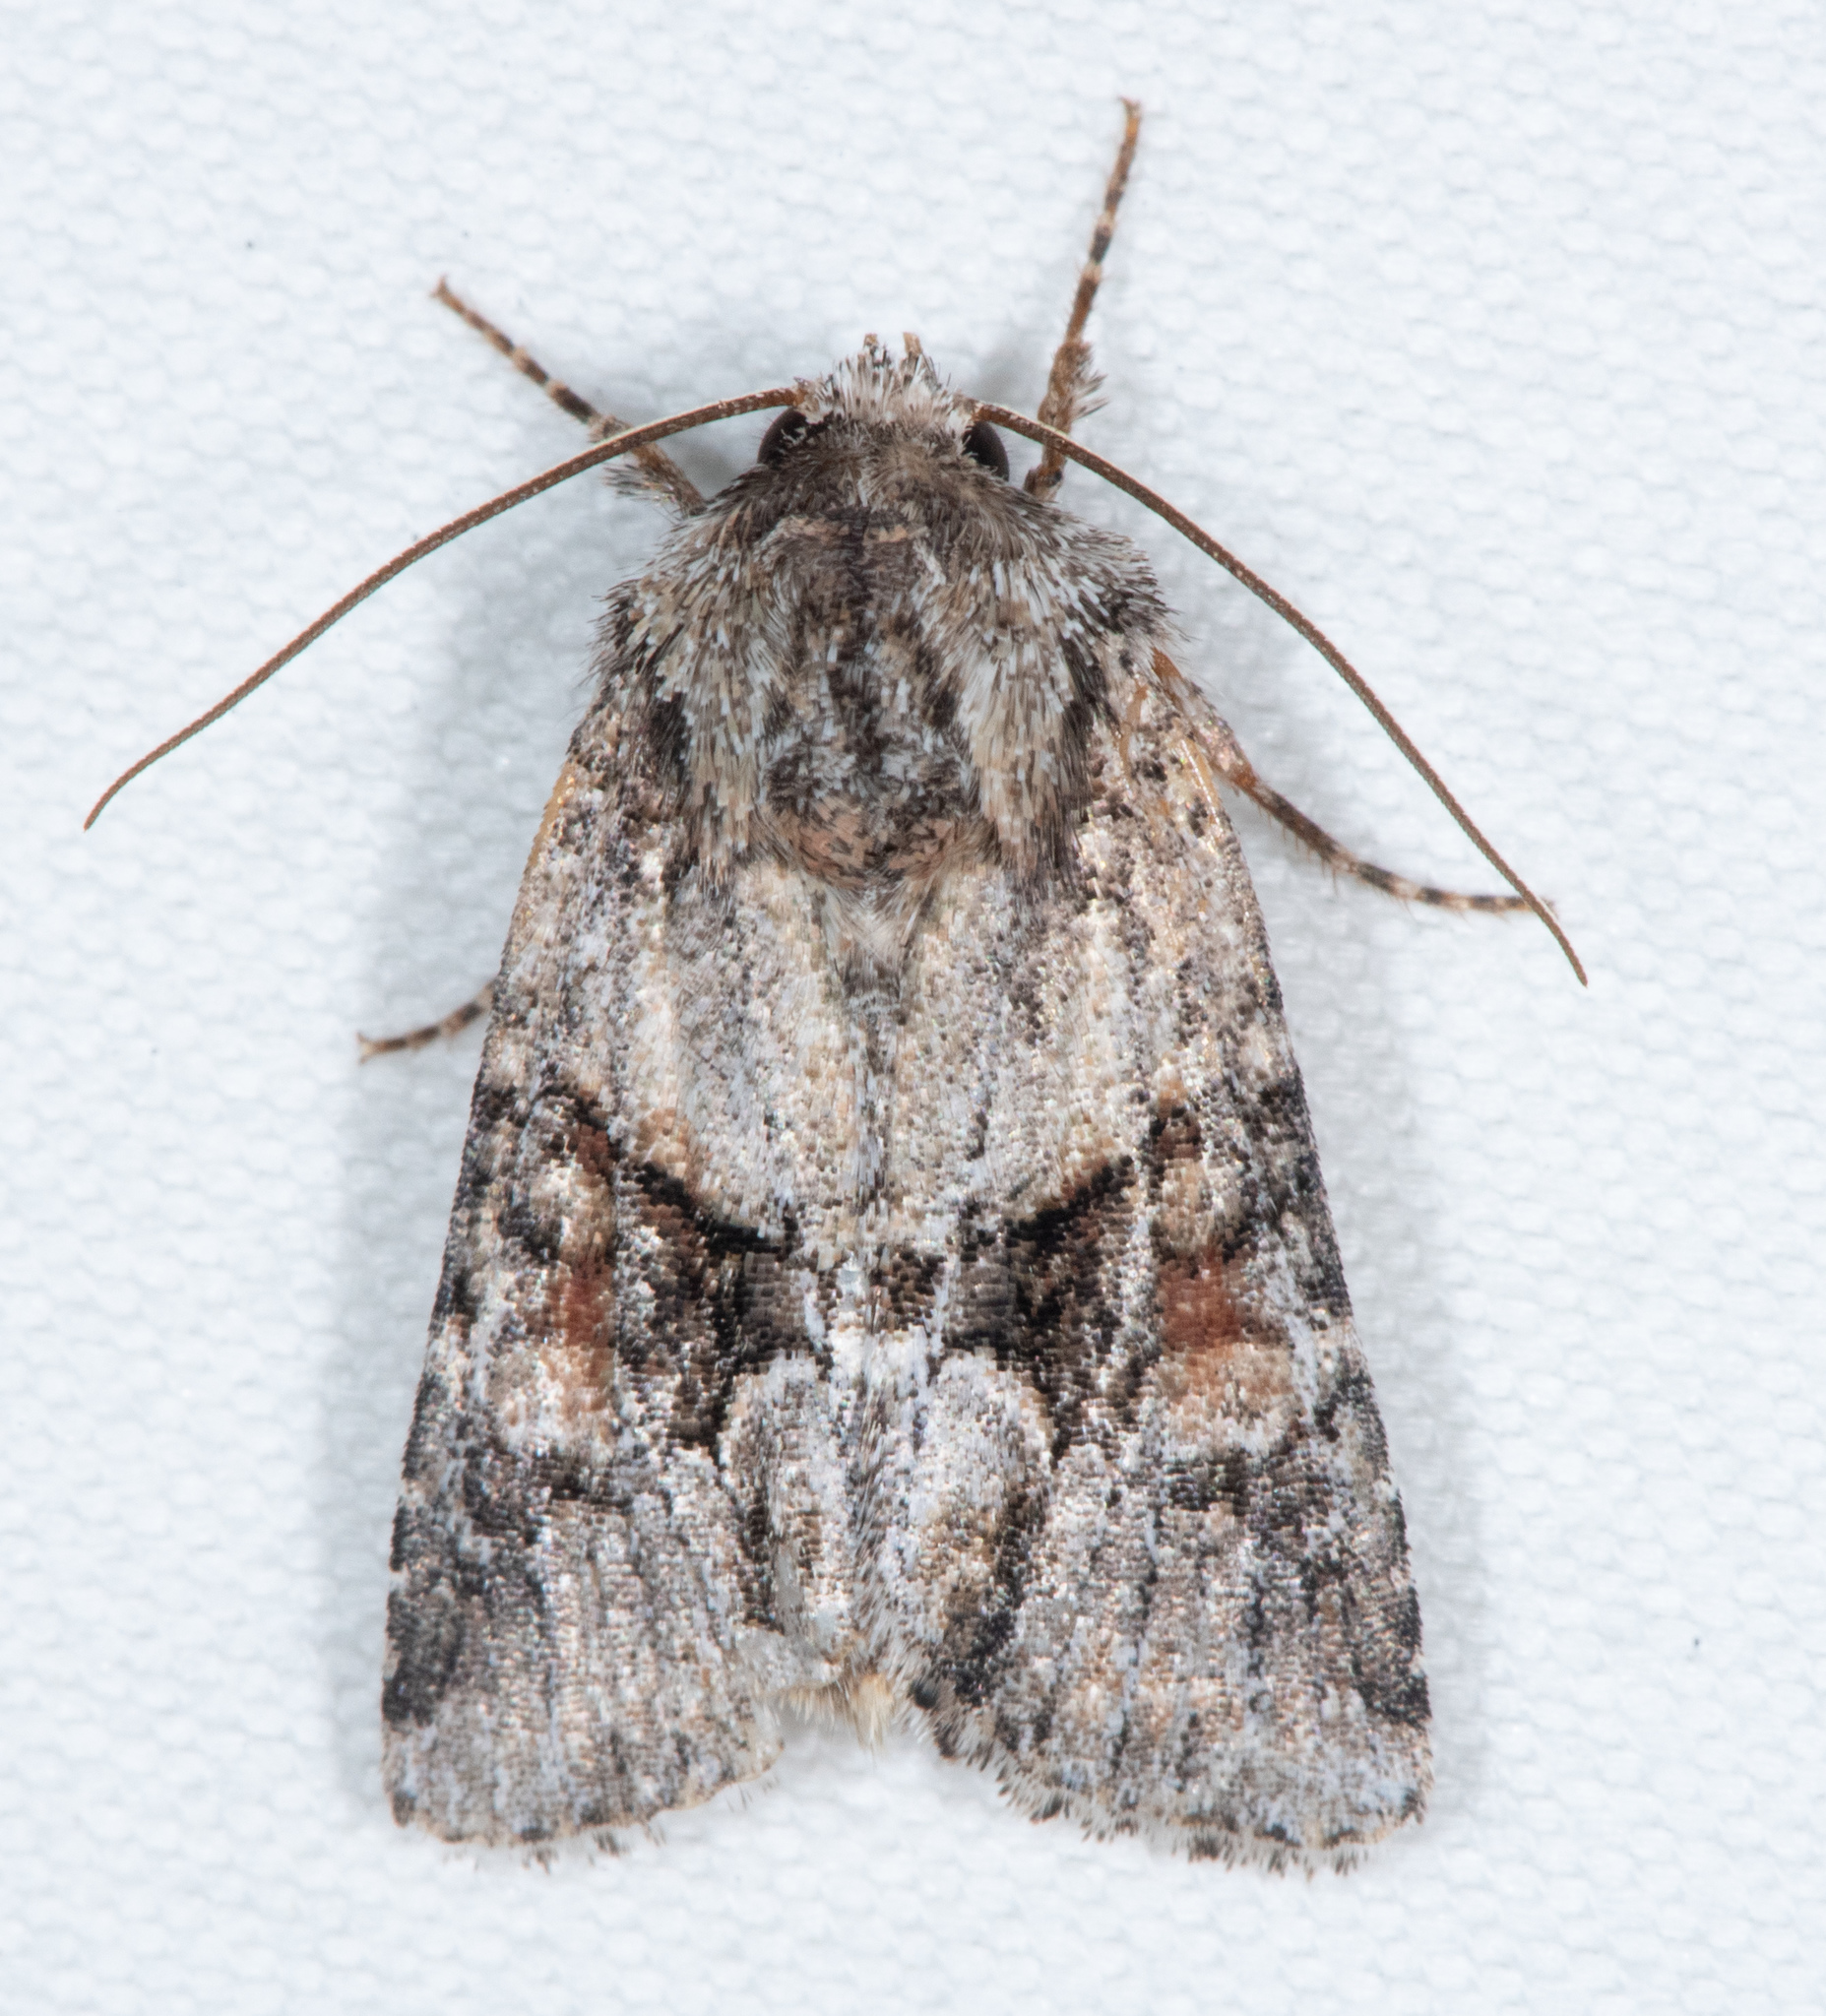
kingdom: Animalia
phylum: Arthropoda
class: Insecta
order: Lepidoptera
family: Noctuidae
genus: Lacinipolia
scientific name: Lacinipolia quadrilineata
